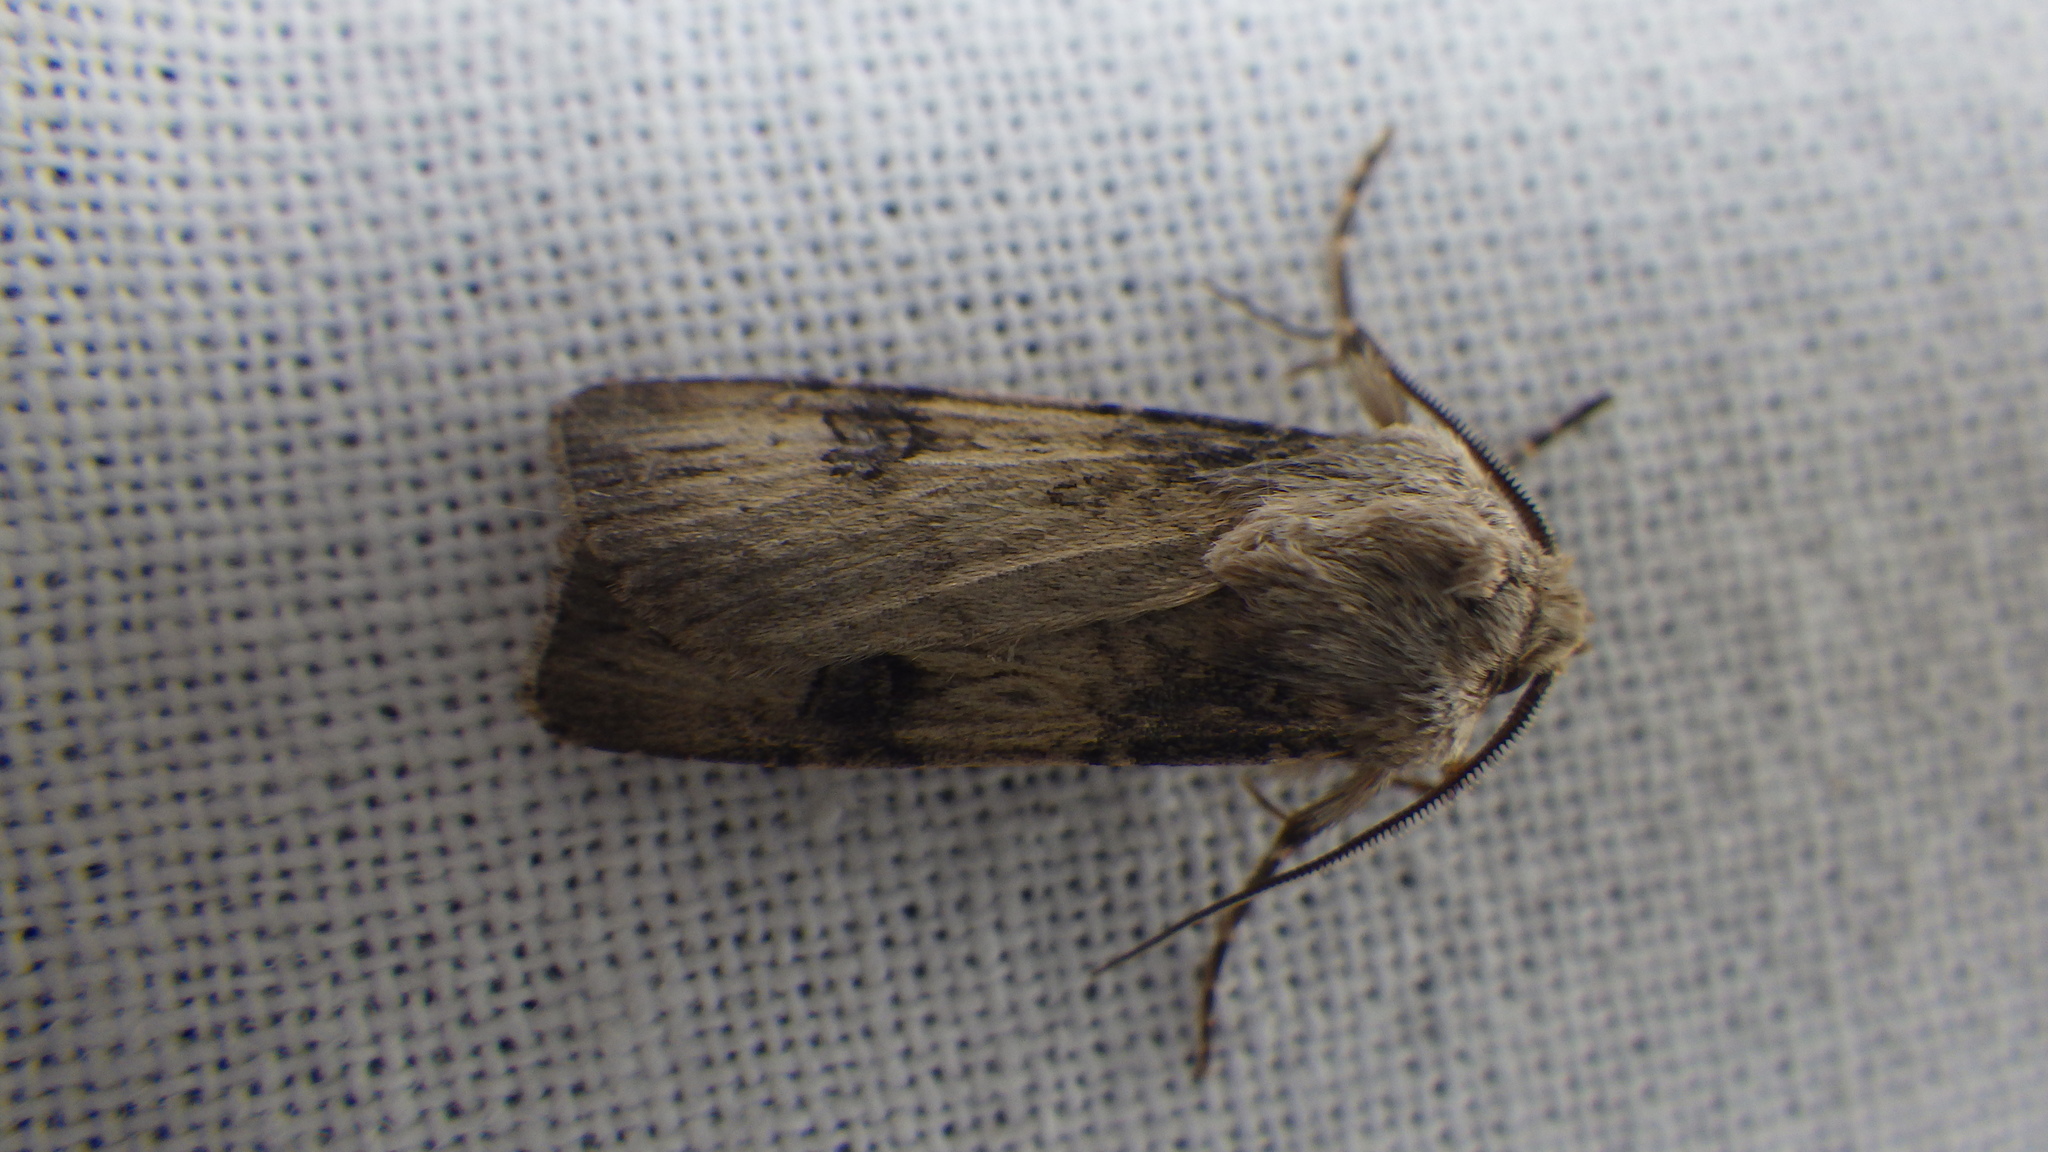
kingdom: Animalia
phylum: Arthropoda
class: Insecta
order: Lepidoptera
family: Noctuidae
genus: Agrotis
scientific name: Agrotis puta
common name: Shuttle-shaped dart
